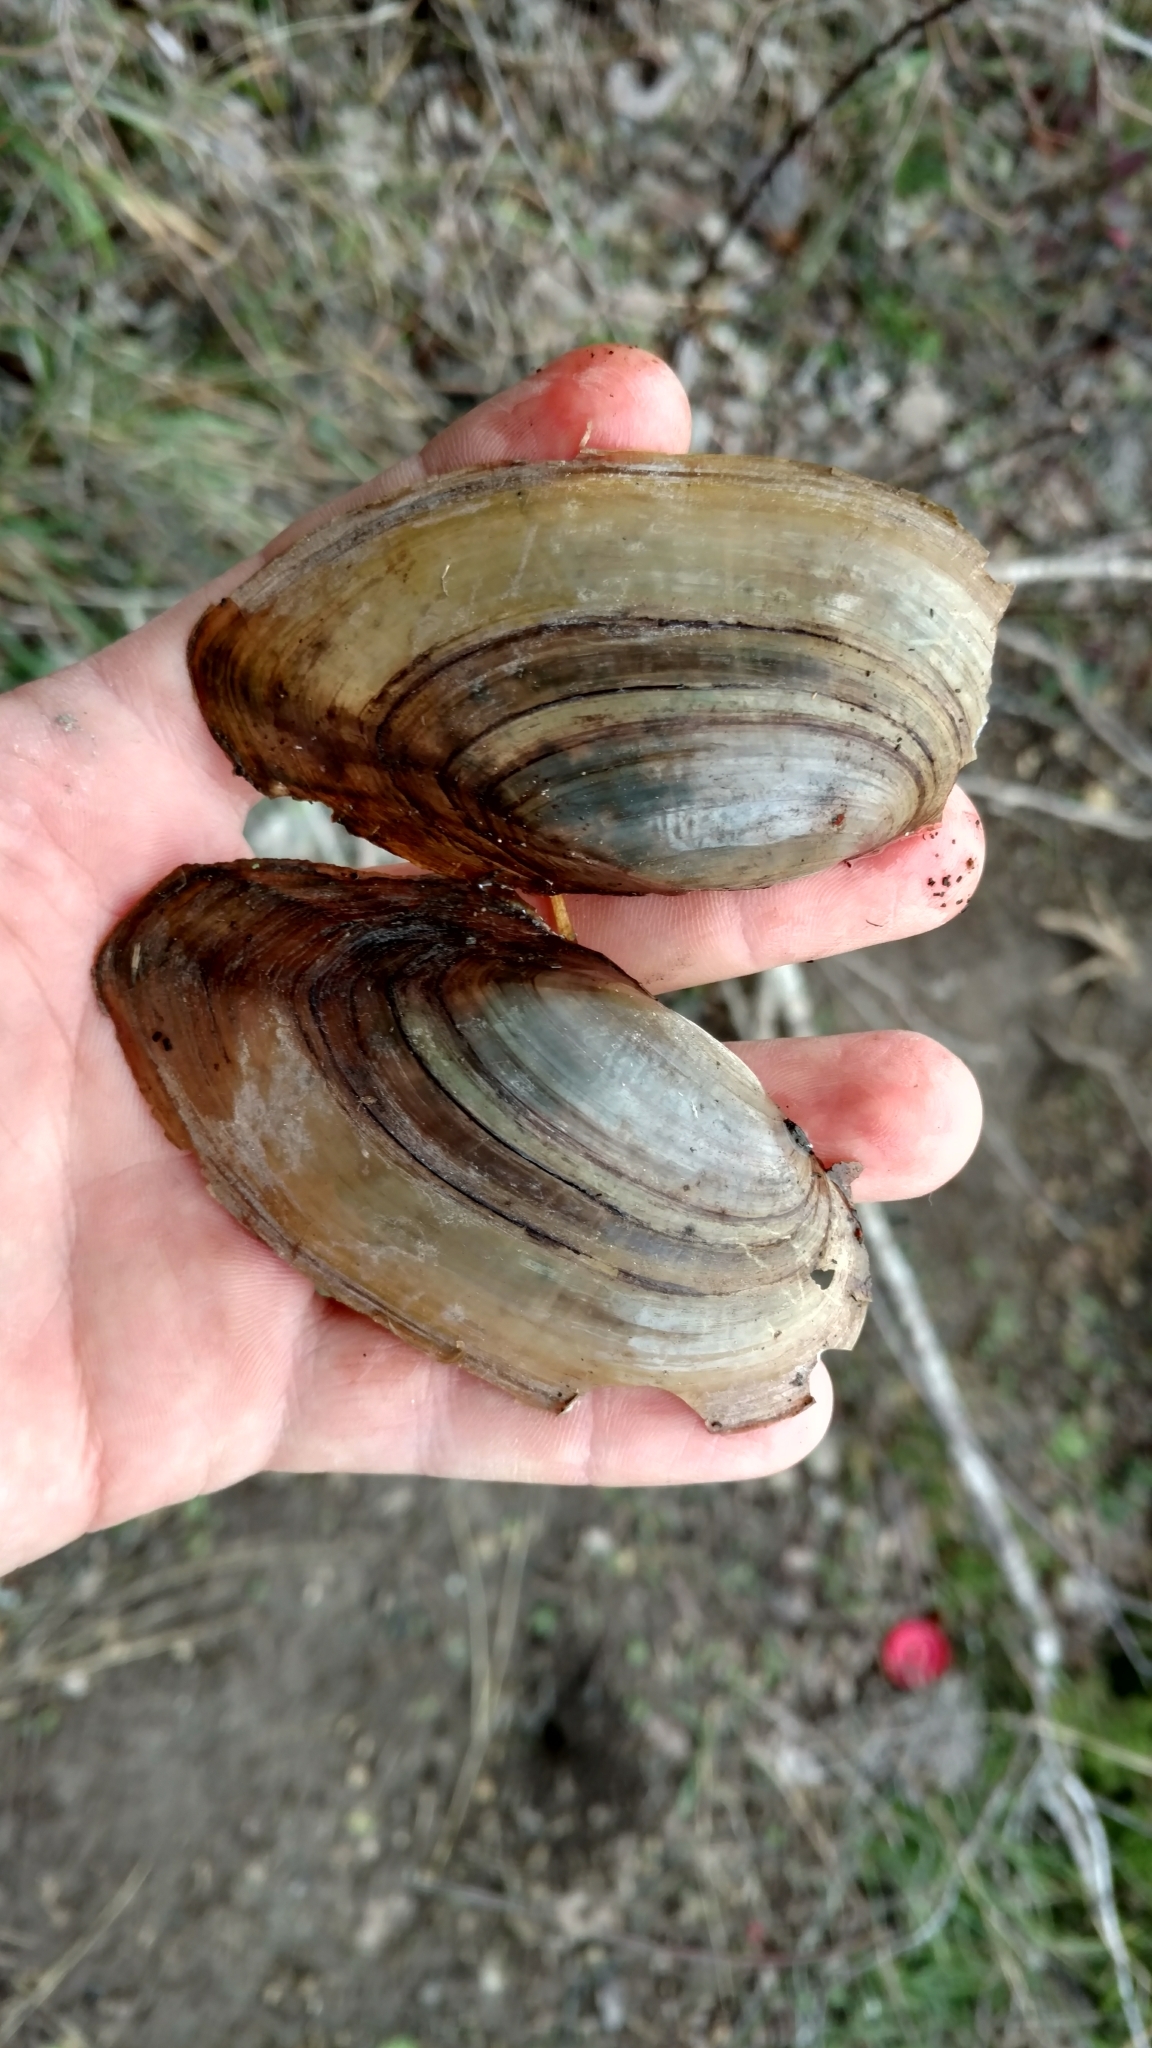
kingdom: Animalia
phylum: Mollusca
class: Bivalvia
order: Unionida
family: Unionidae
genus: Utterbackia
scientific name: Utterbackia imbecillis
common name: Paper pondshell
